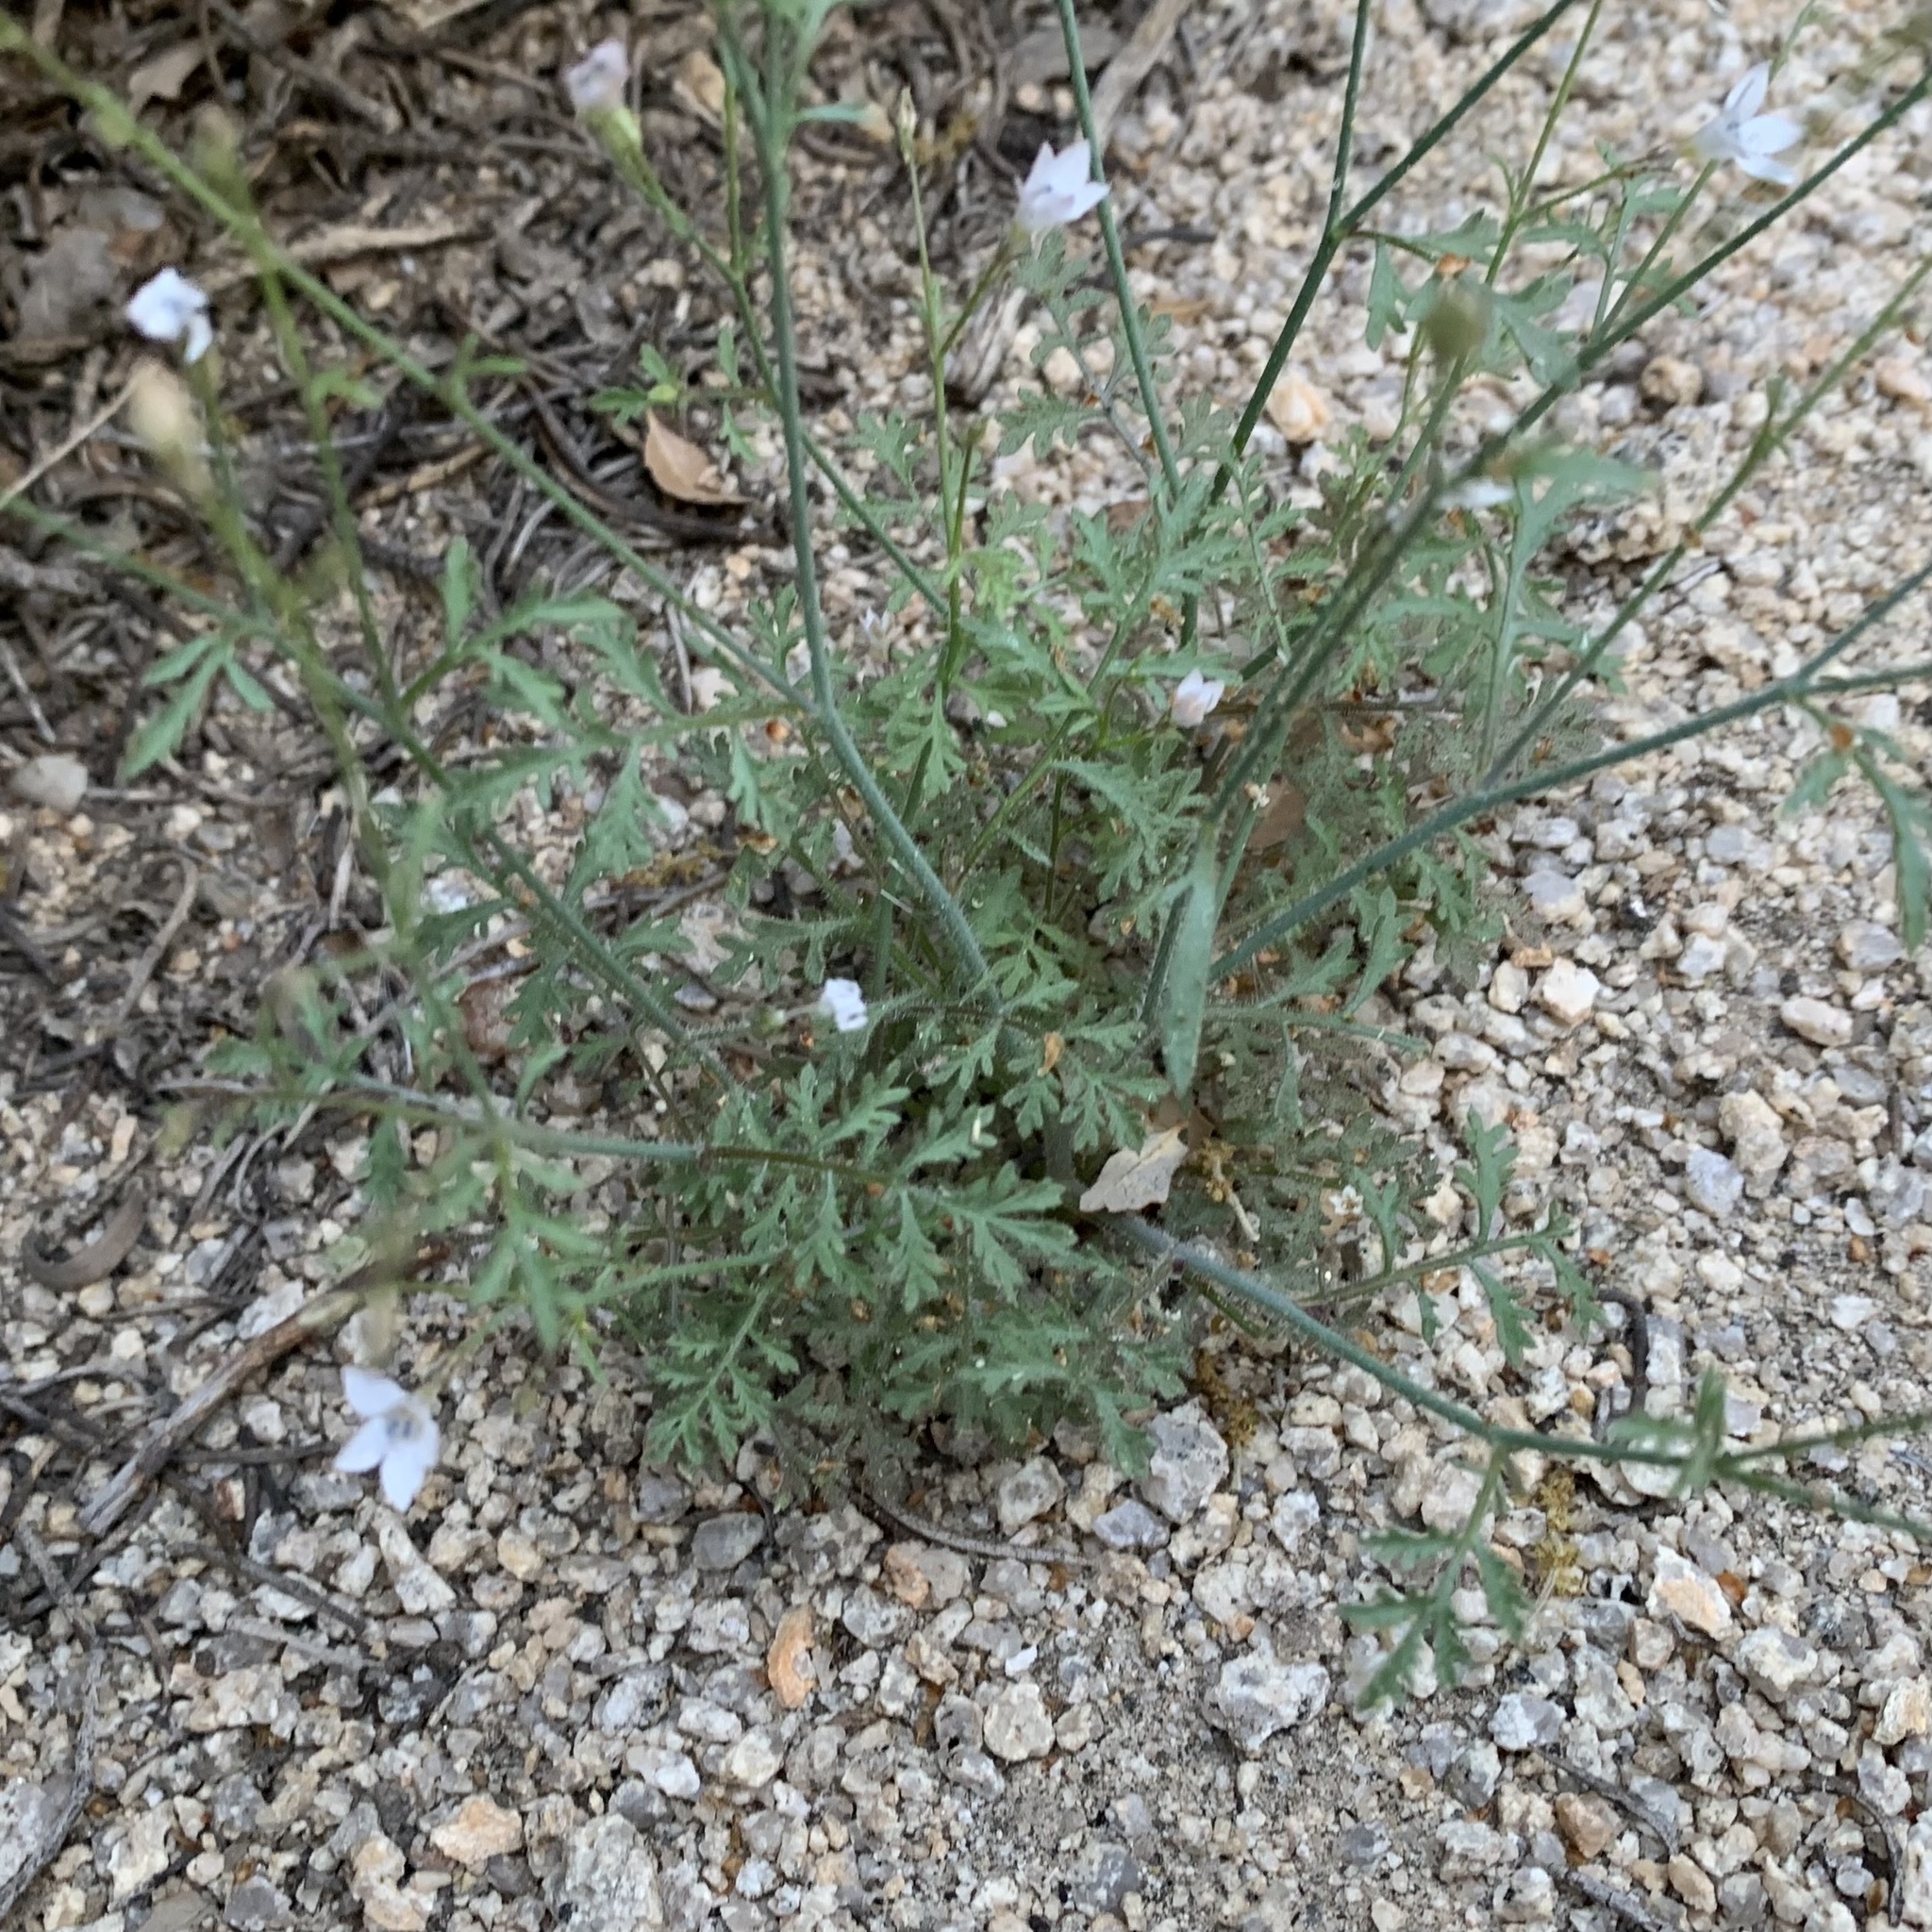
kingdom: Plantae
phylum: Tracheophyta
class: Magnoliopsida
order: Ericales
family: Polemoniaceae
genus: Gilia
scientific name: Gilia latimeri
